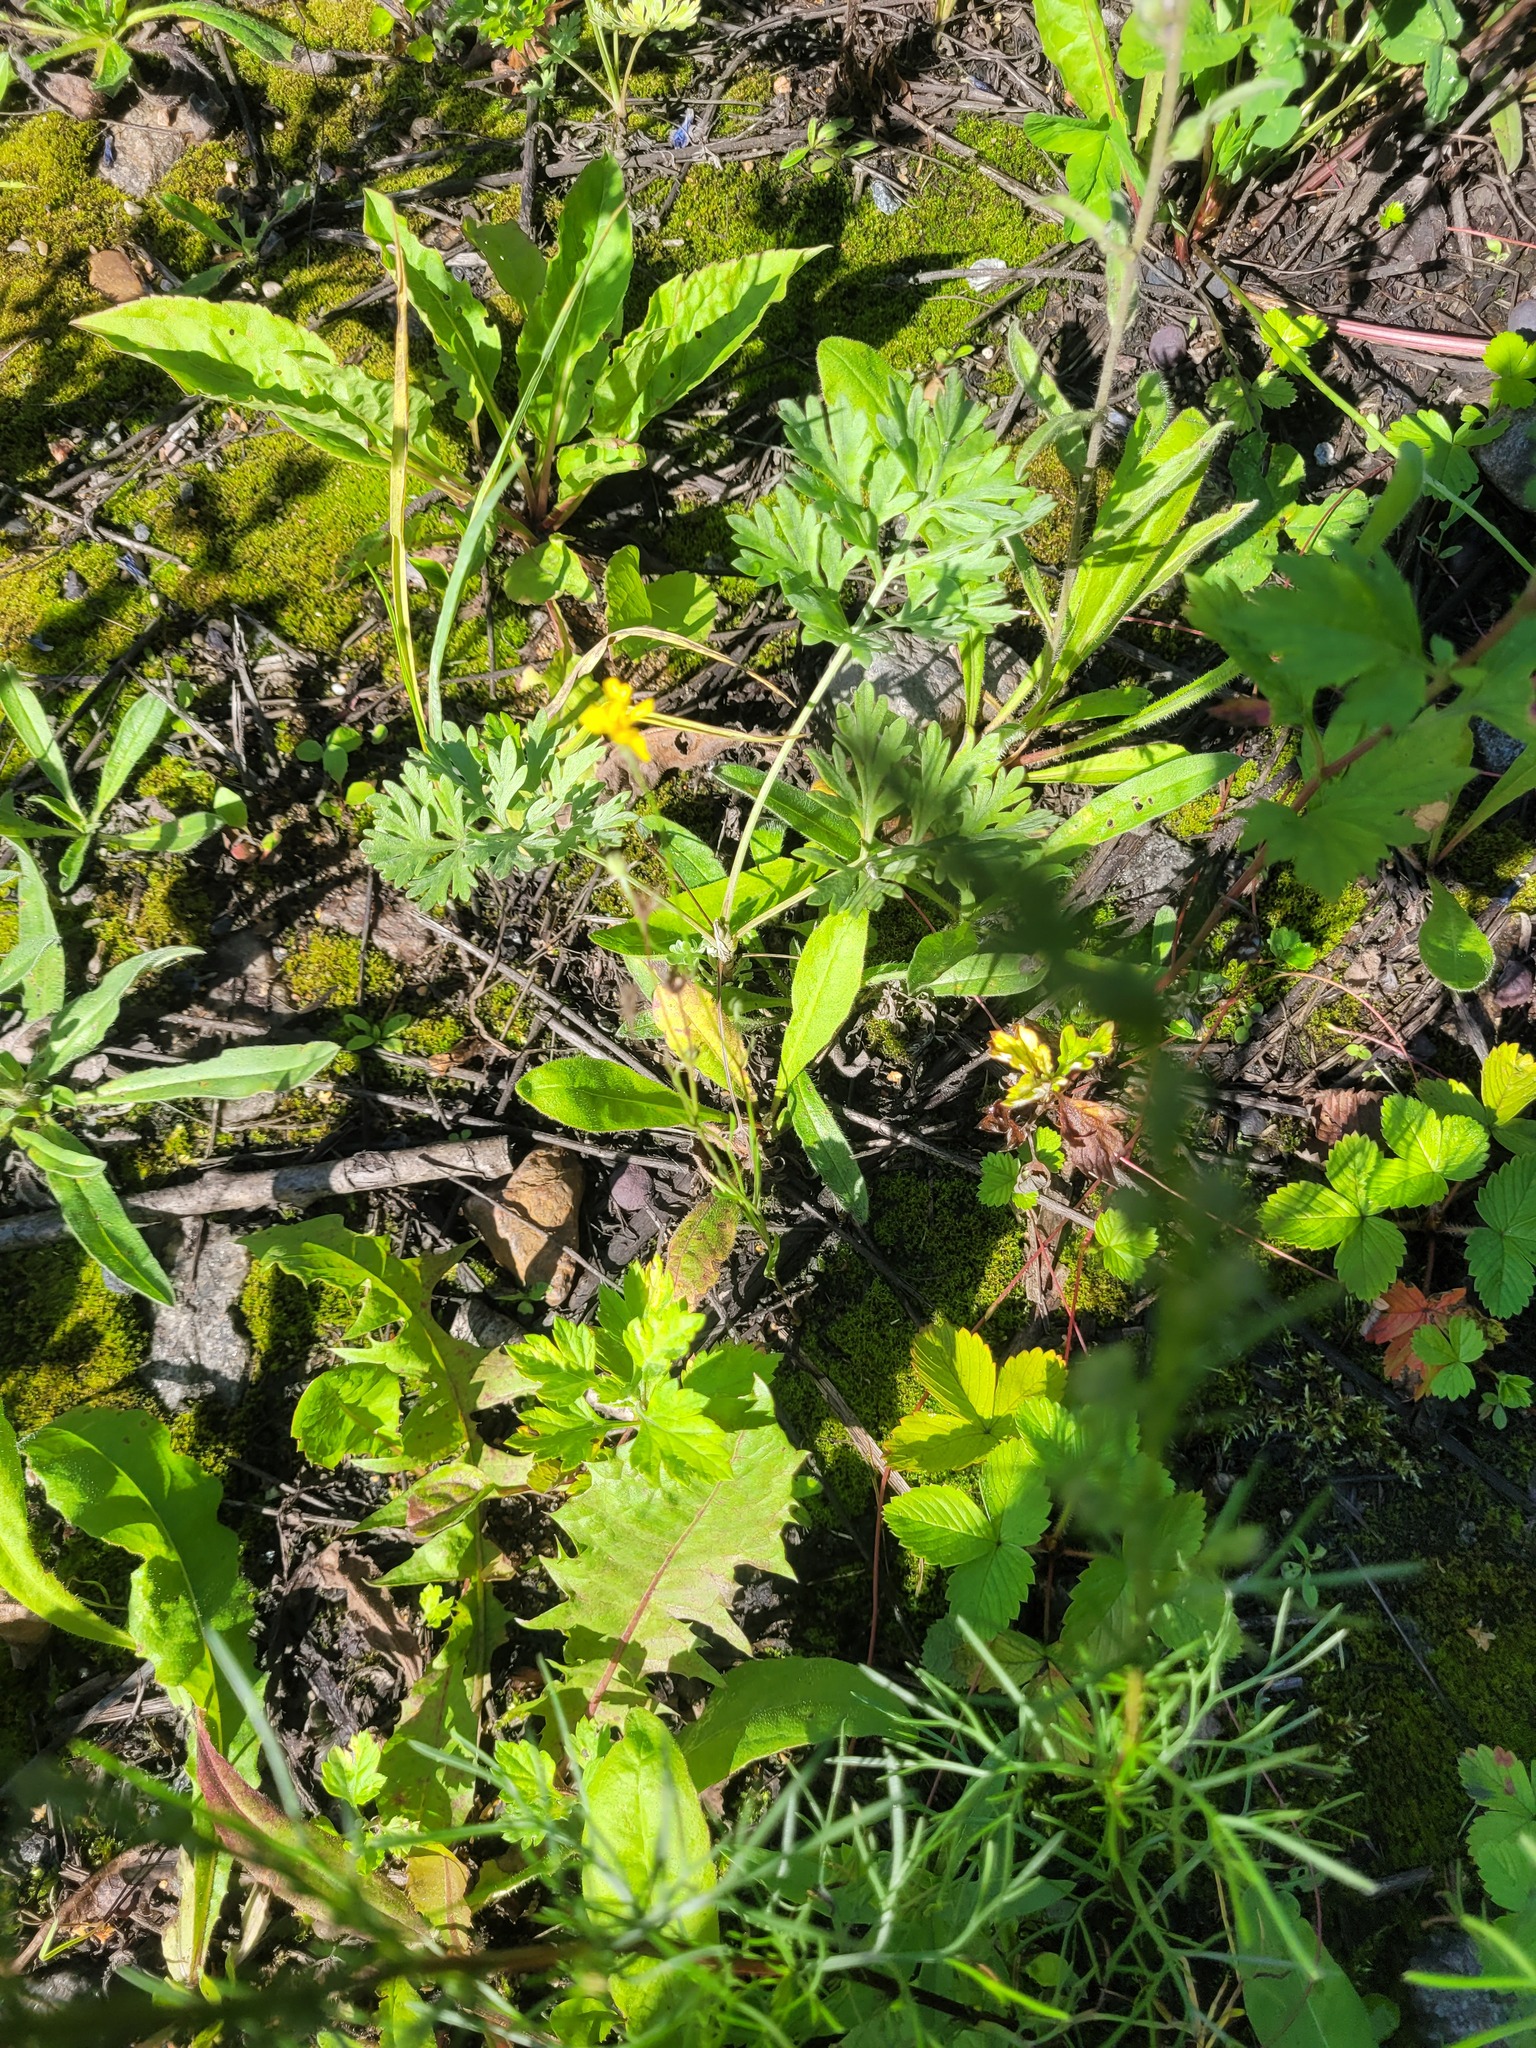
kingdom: Plantae
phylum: Tracheophyta
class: Magnoliopsida
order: Asterales
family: Asteraceae
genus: Crepis
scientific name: Crepis tectorum
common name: Narrow-leaved hawk's-beard
